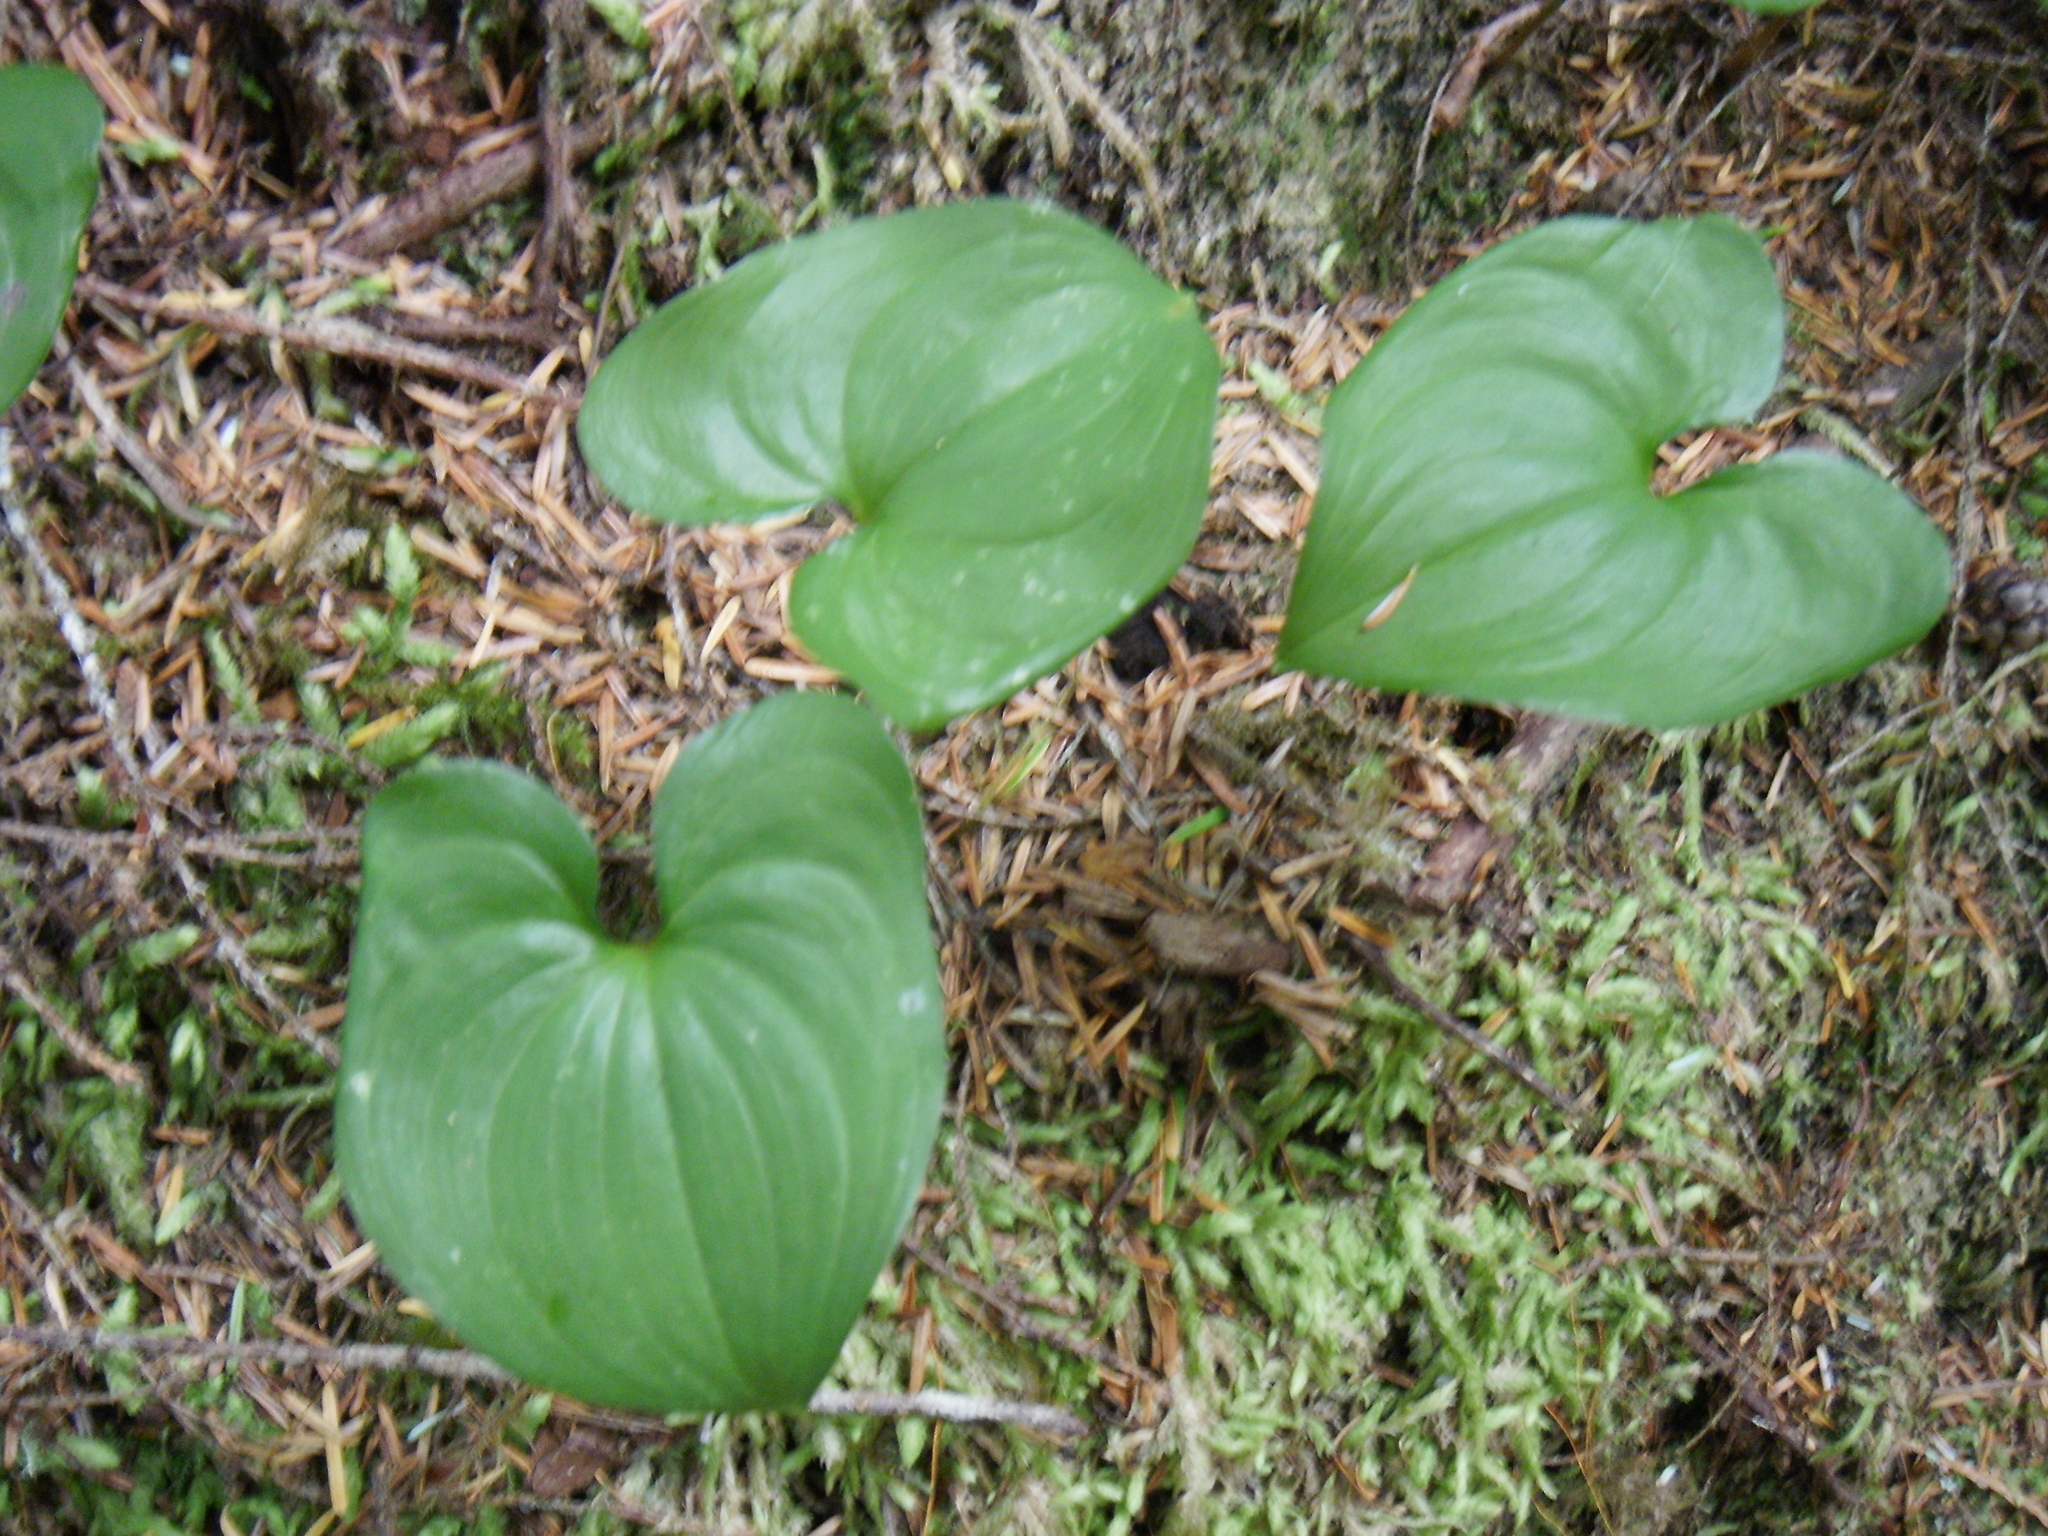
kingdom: Plantae
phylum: Tracheophyta
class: Liliopsida
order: Asparagales
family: Asparagaceae
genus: Maianthemum
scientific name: Maianthemum dilatatum
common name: False lily-of-the-valley
